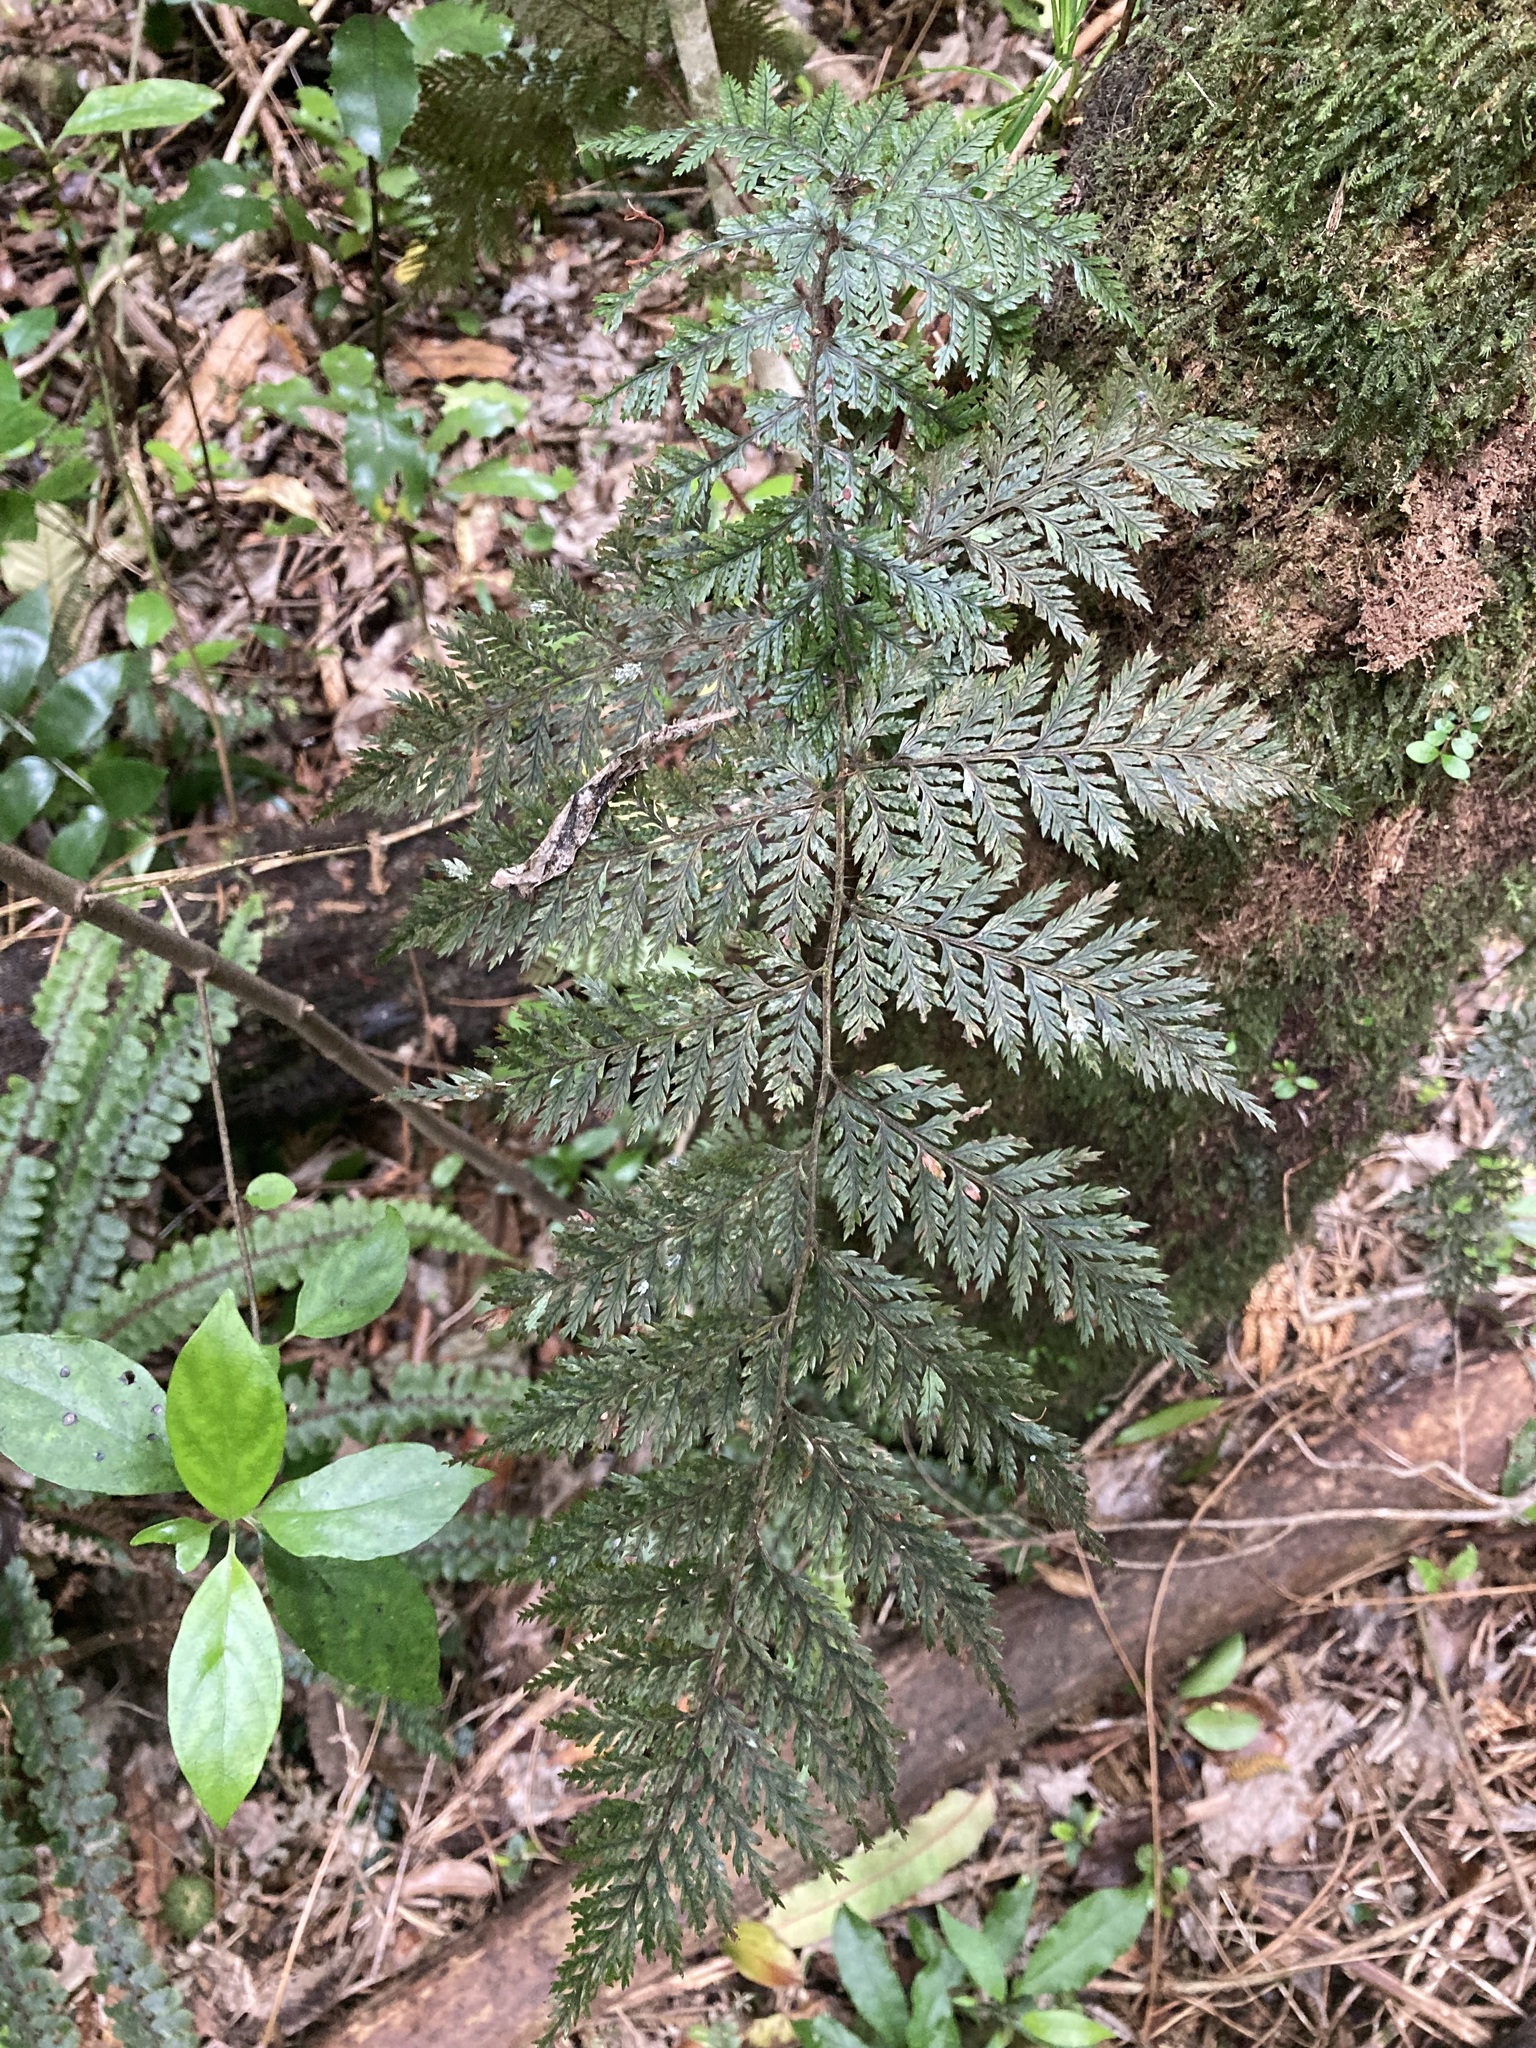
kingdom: Plantae
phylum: Tracheophyta
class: Polypodiopsida
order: Polypodiales
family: Dryopteridaceae
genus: Lastreopsis
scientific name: Lastreopsis hispida
